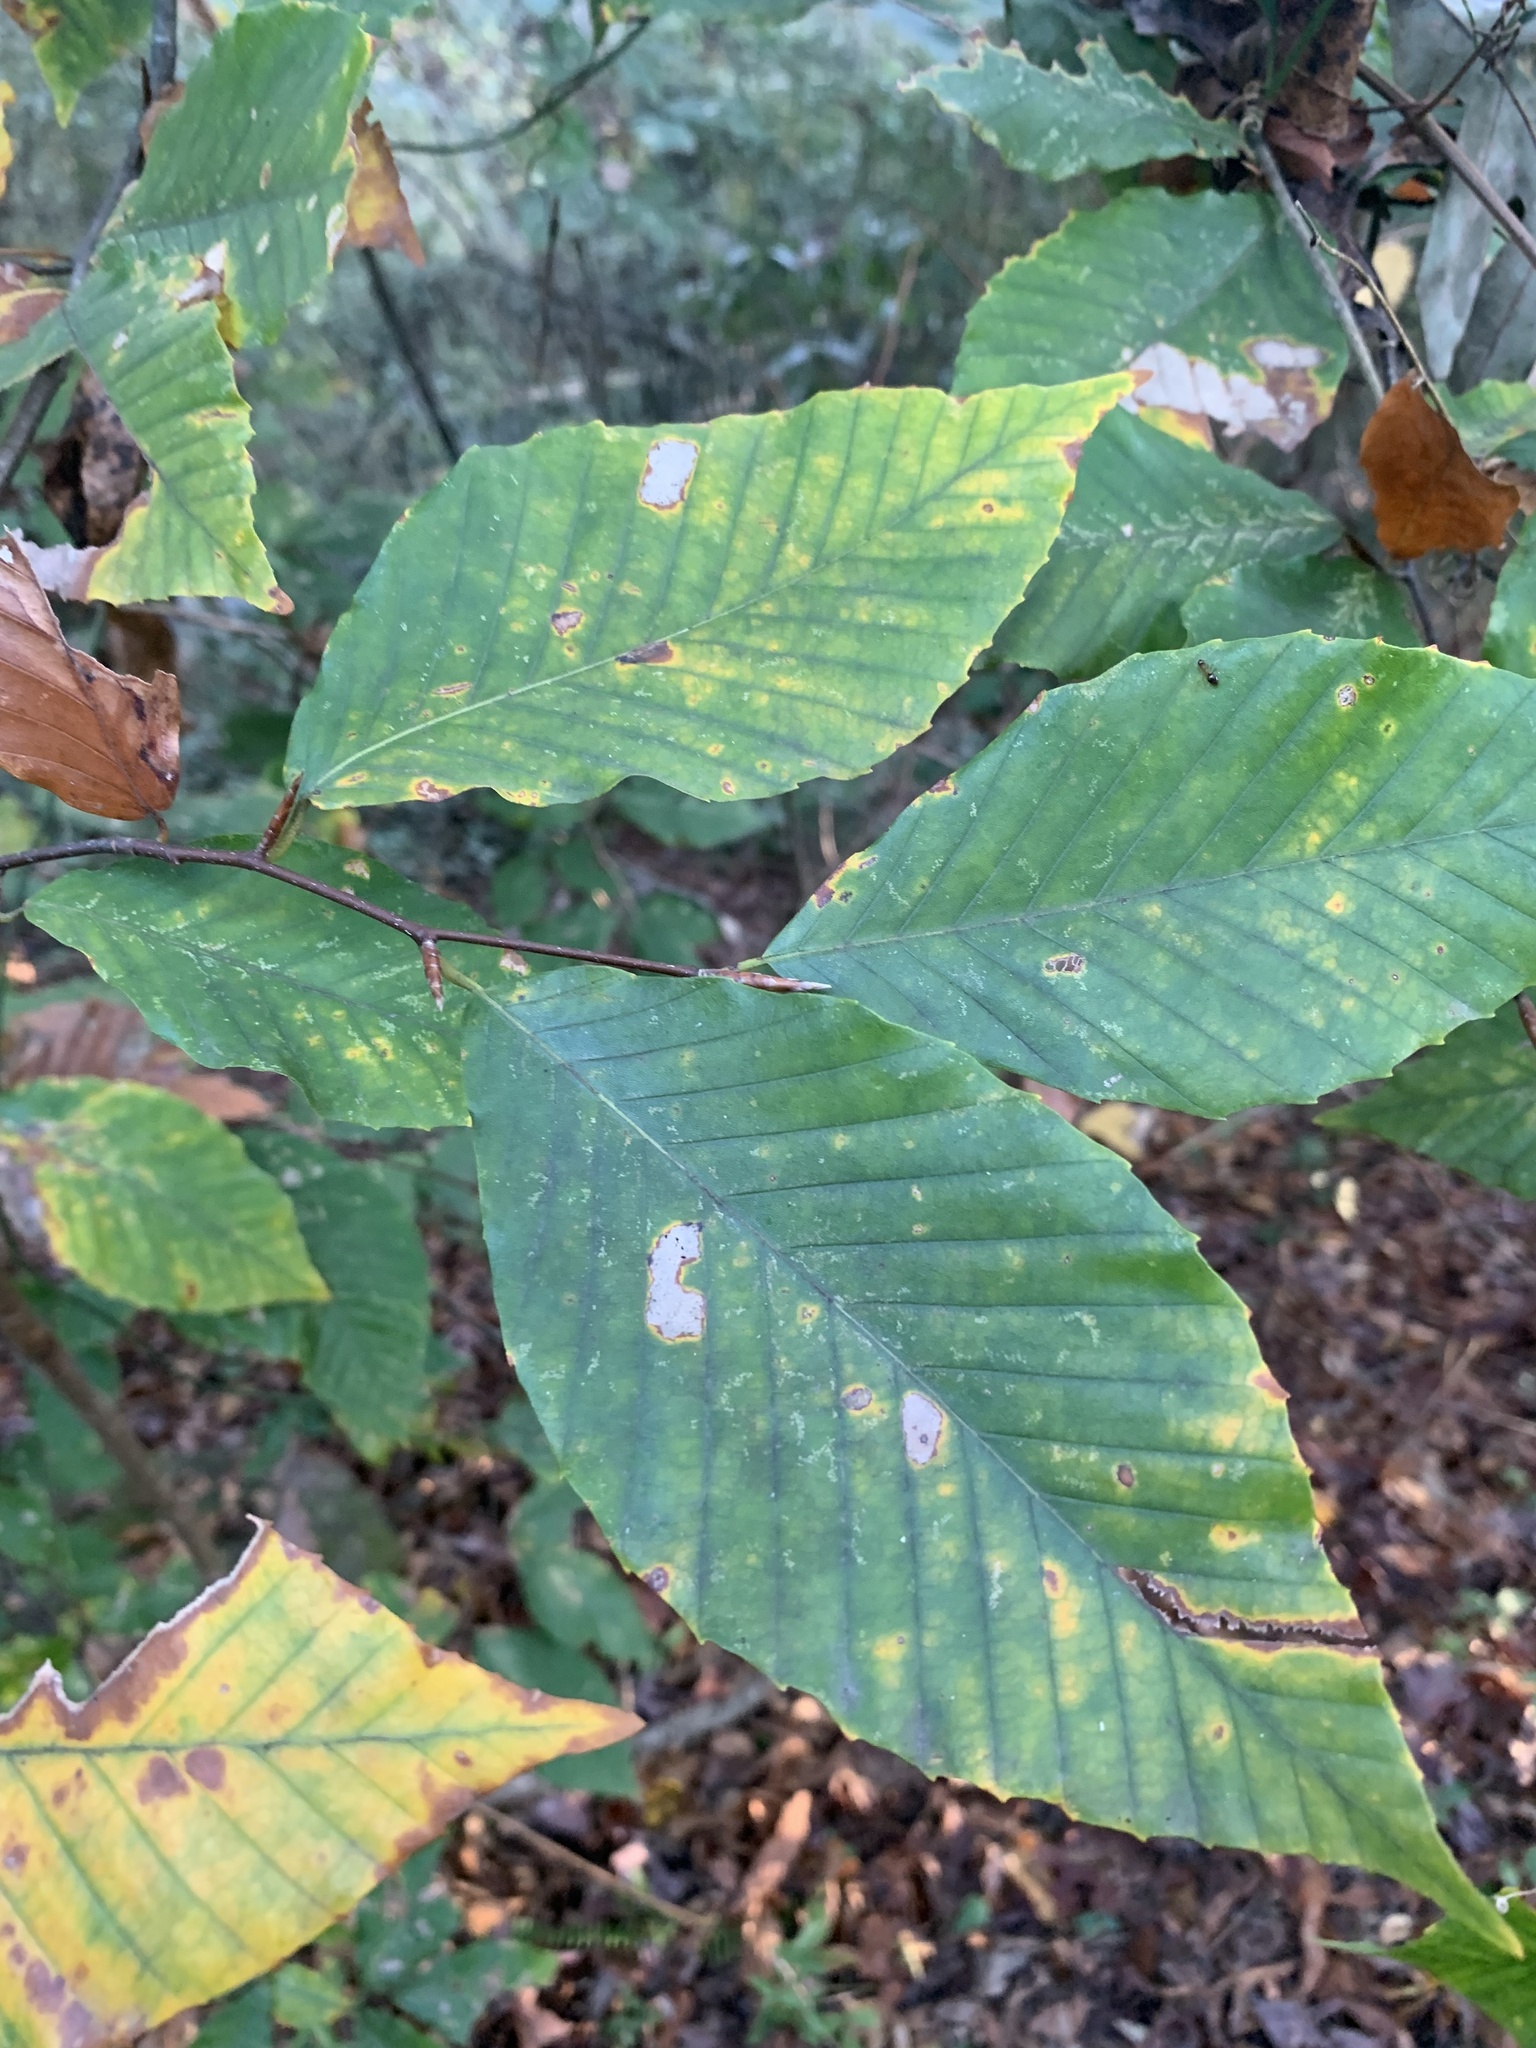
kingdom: Plantae
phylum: Tracheophyta
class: Magnoliopsida
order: Fagales
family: Fagaceae
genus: Fagus
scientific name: Fagus grandifolia
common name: American beech
